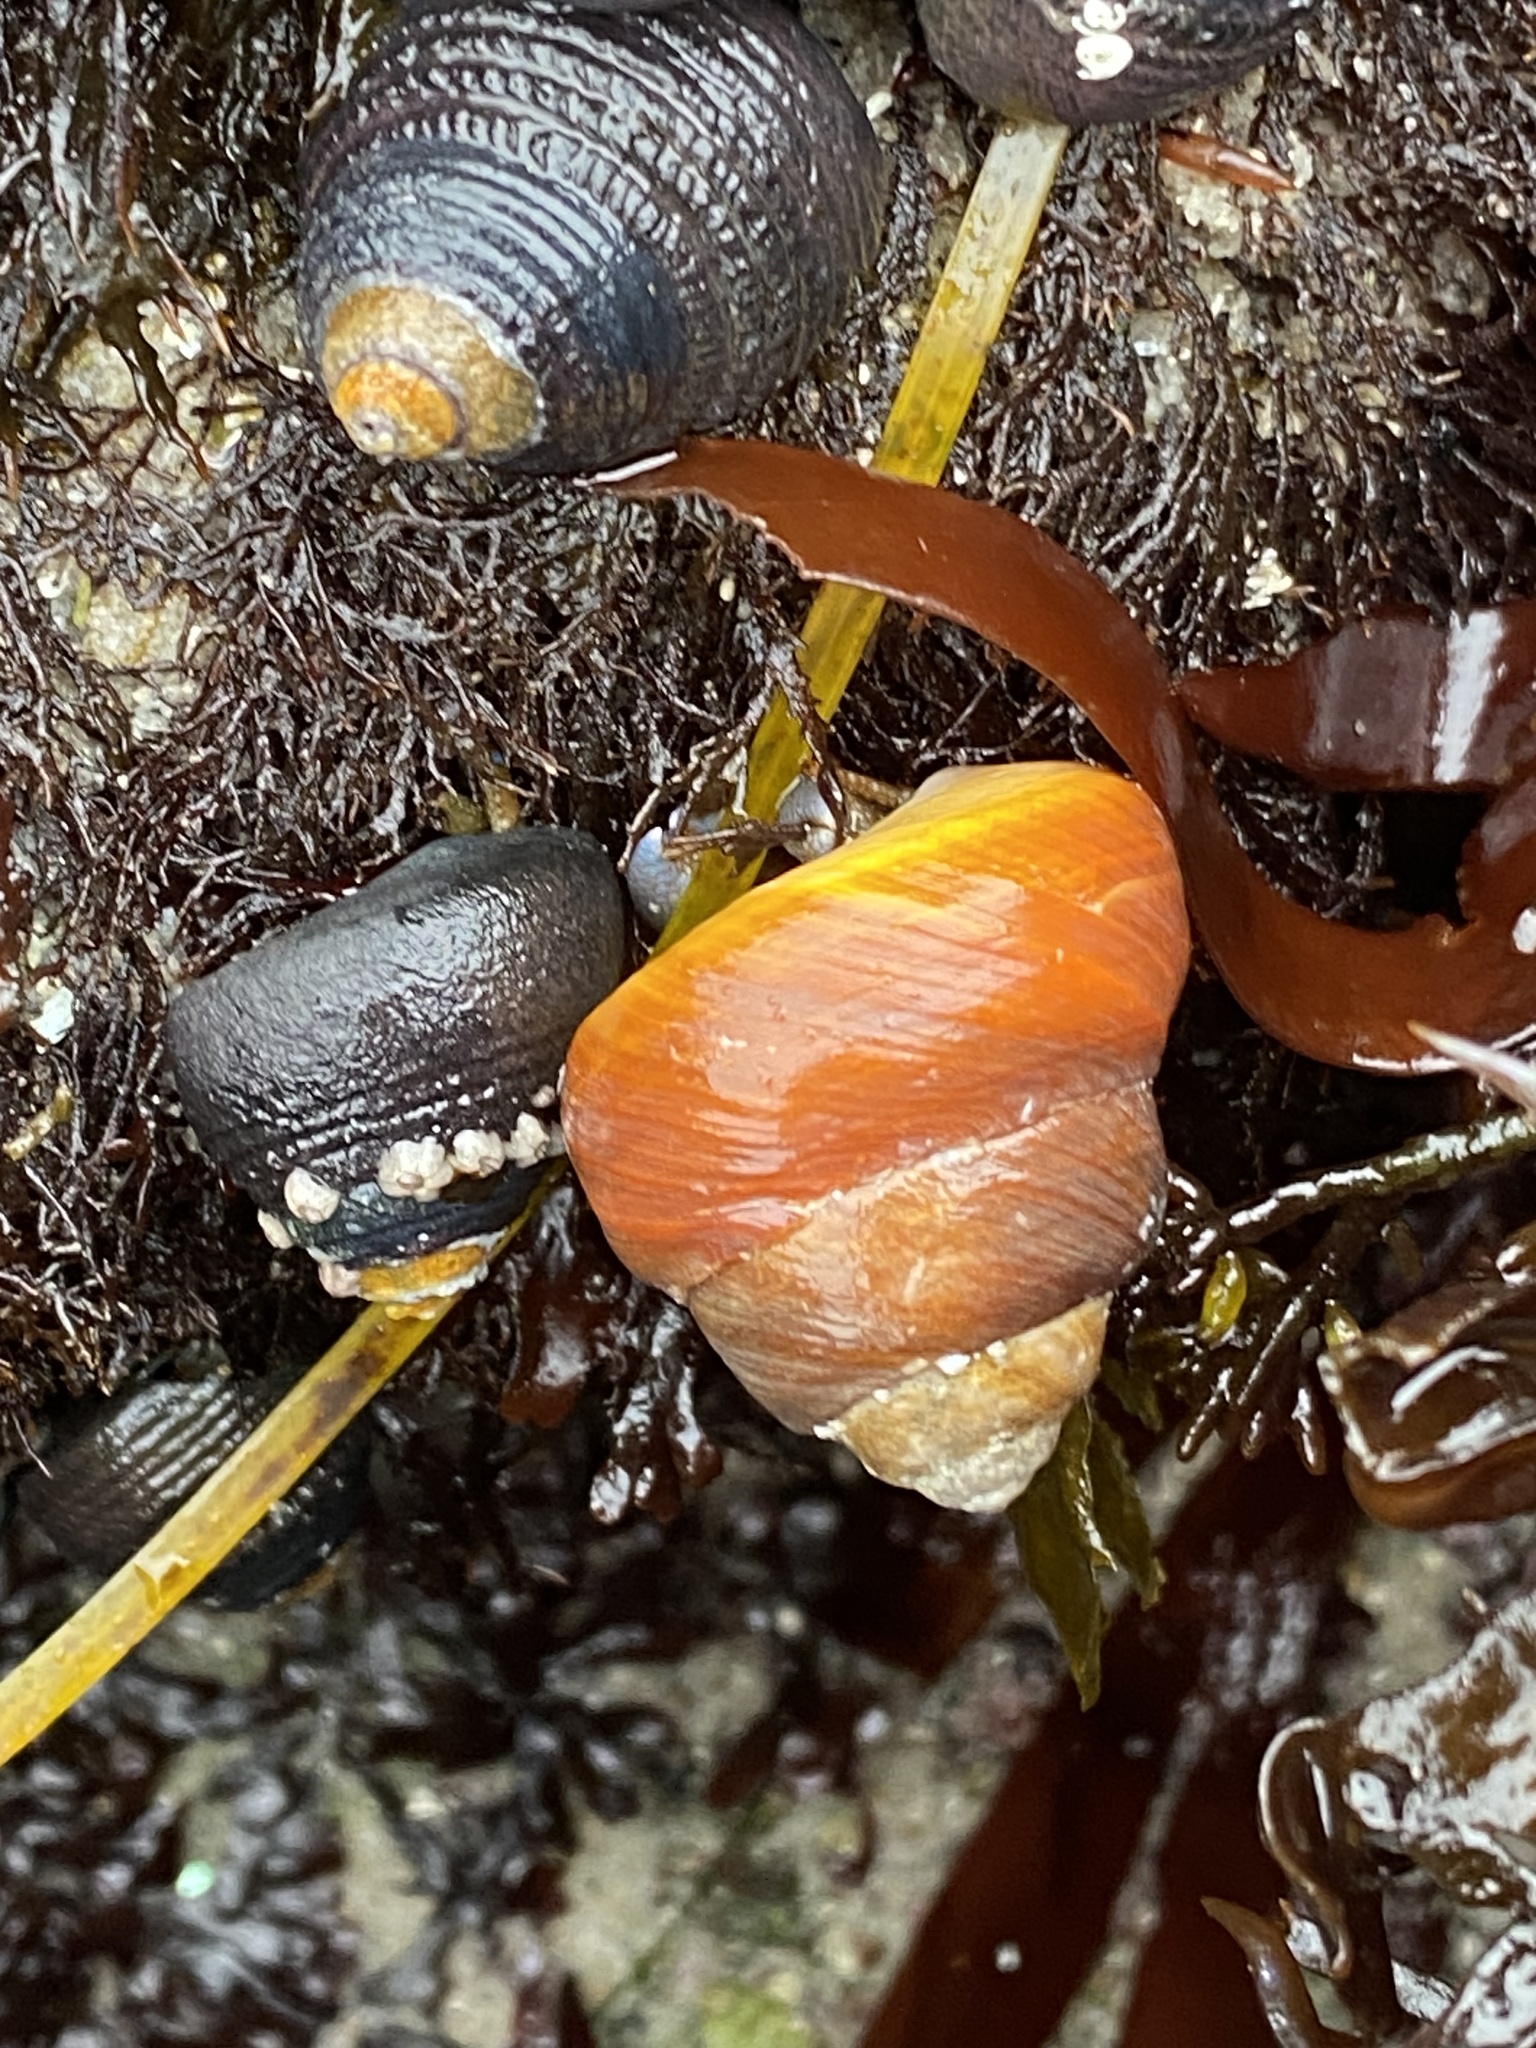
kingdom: Animalia
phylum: Mollusca
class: Gastropoda
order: Trochida
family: Tegulidae
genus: Tegula
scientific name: Tegula brunnea
